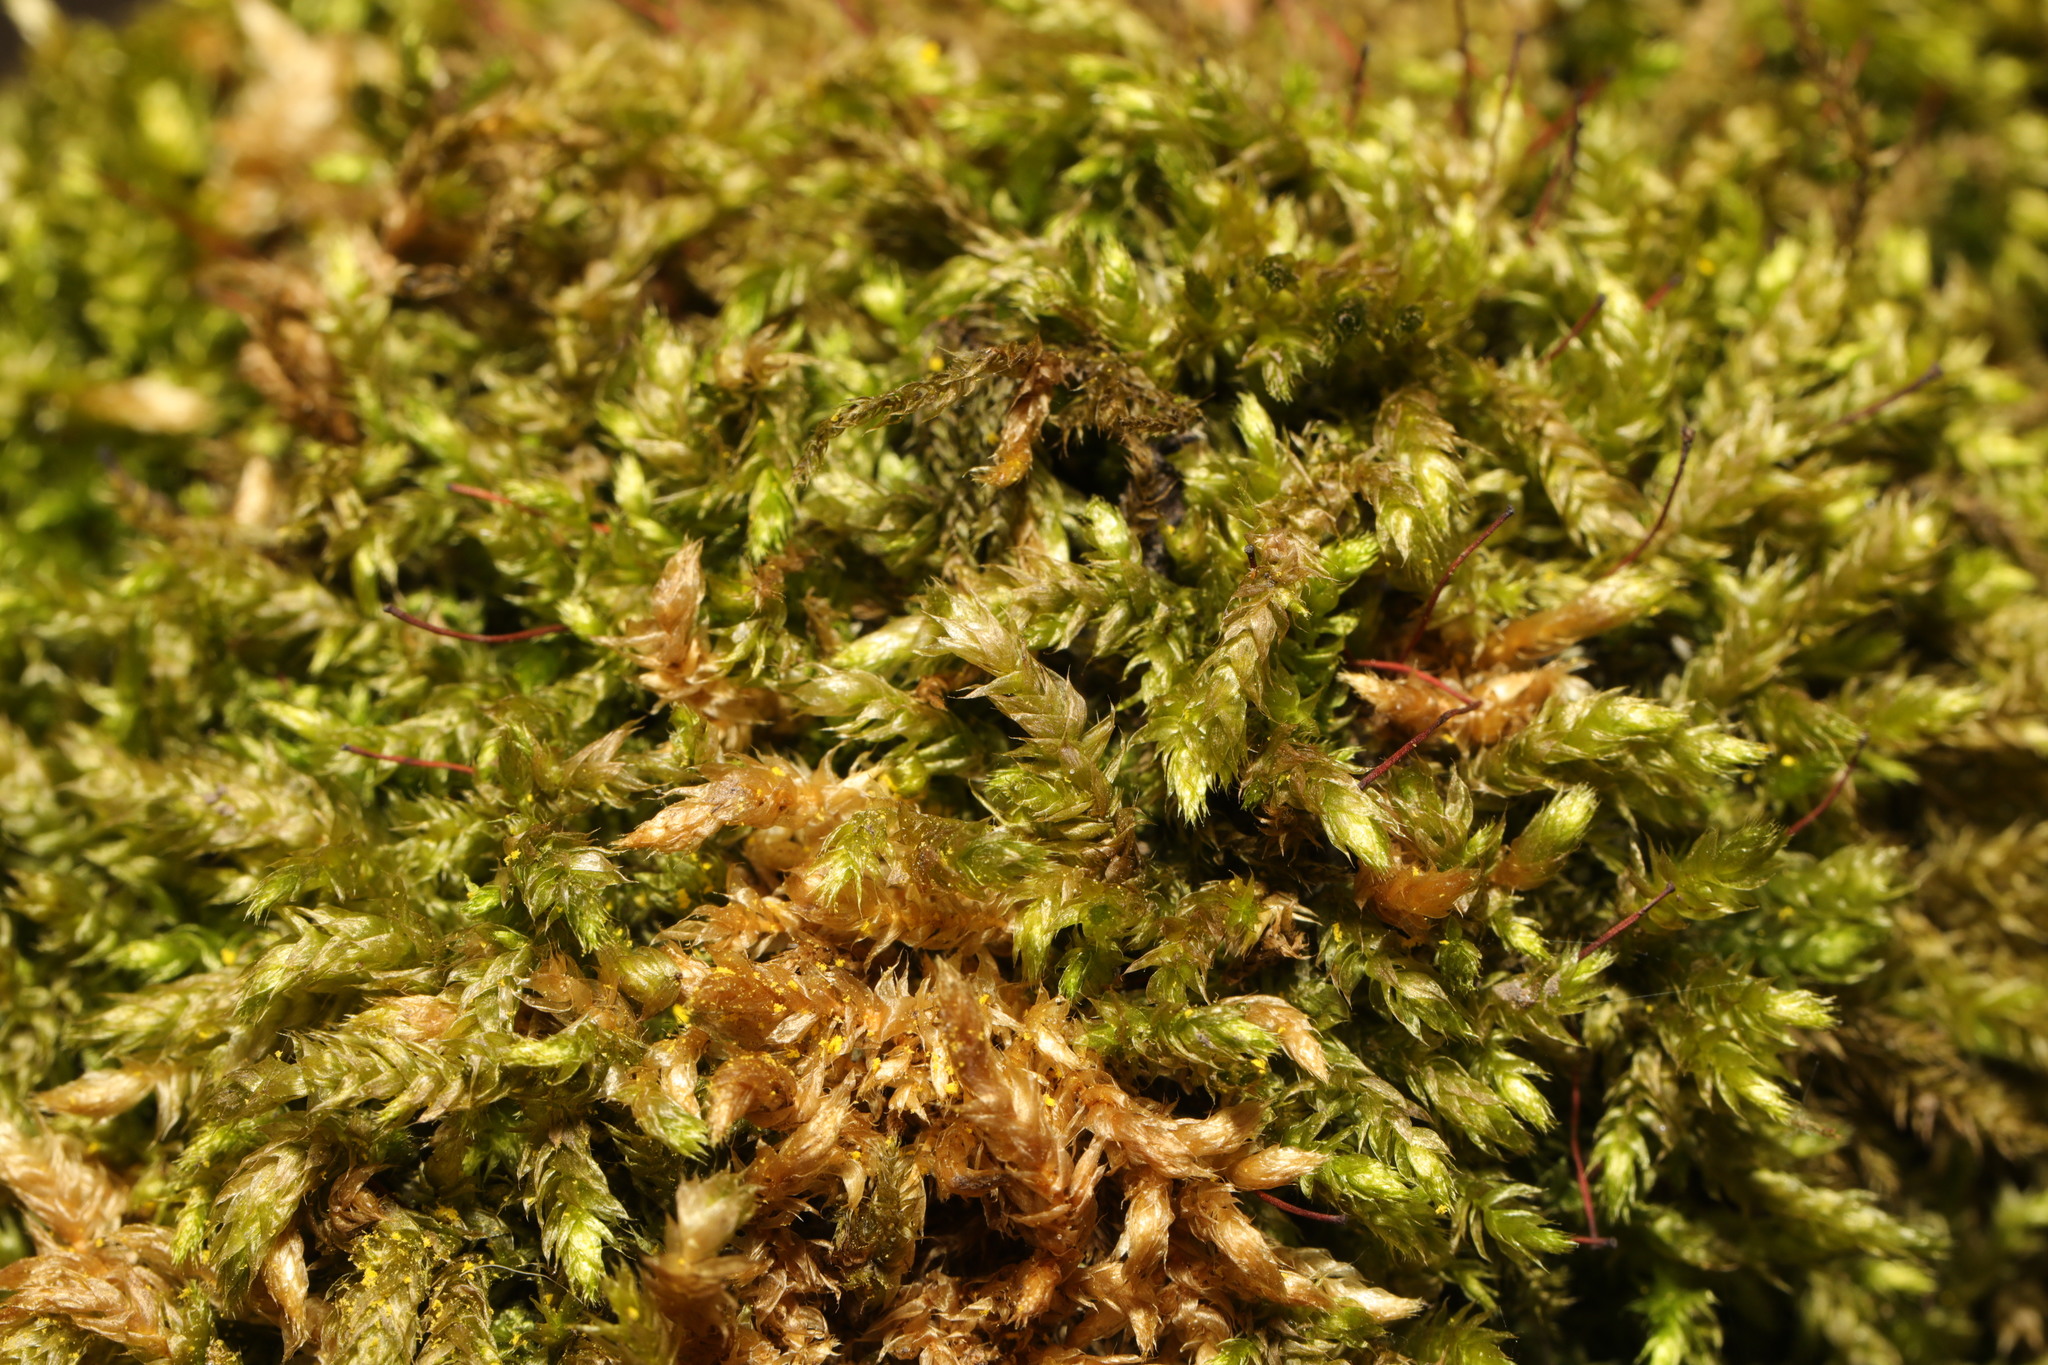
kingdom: Plantae
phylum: Bryophyta
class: Bryopsida
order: Hypnales
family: Brachytheciaceae
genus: Brachythecium
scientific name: Brachythecium rutabulum
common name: Rough-stalked feather-moss
